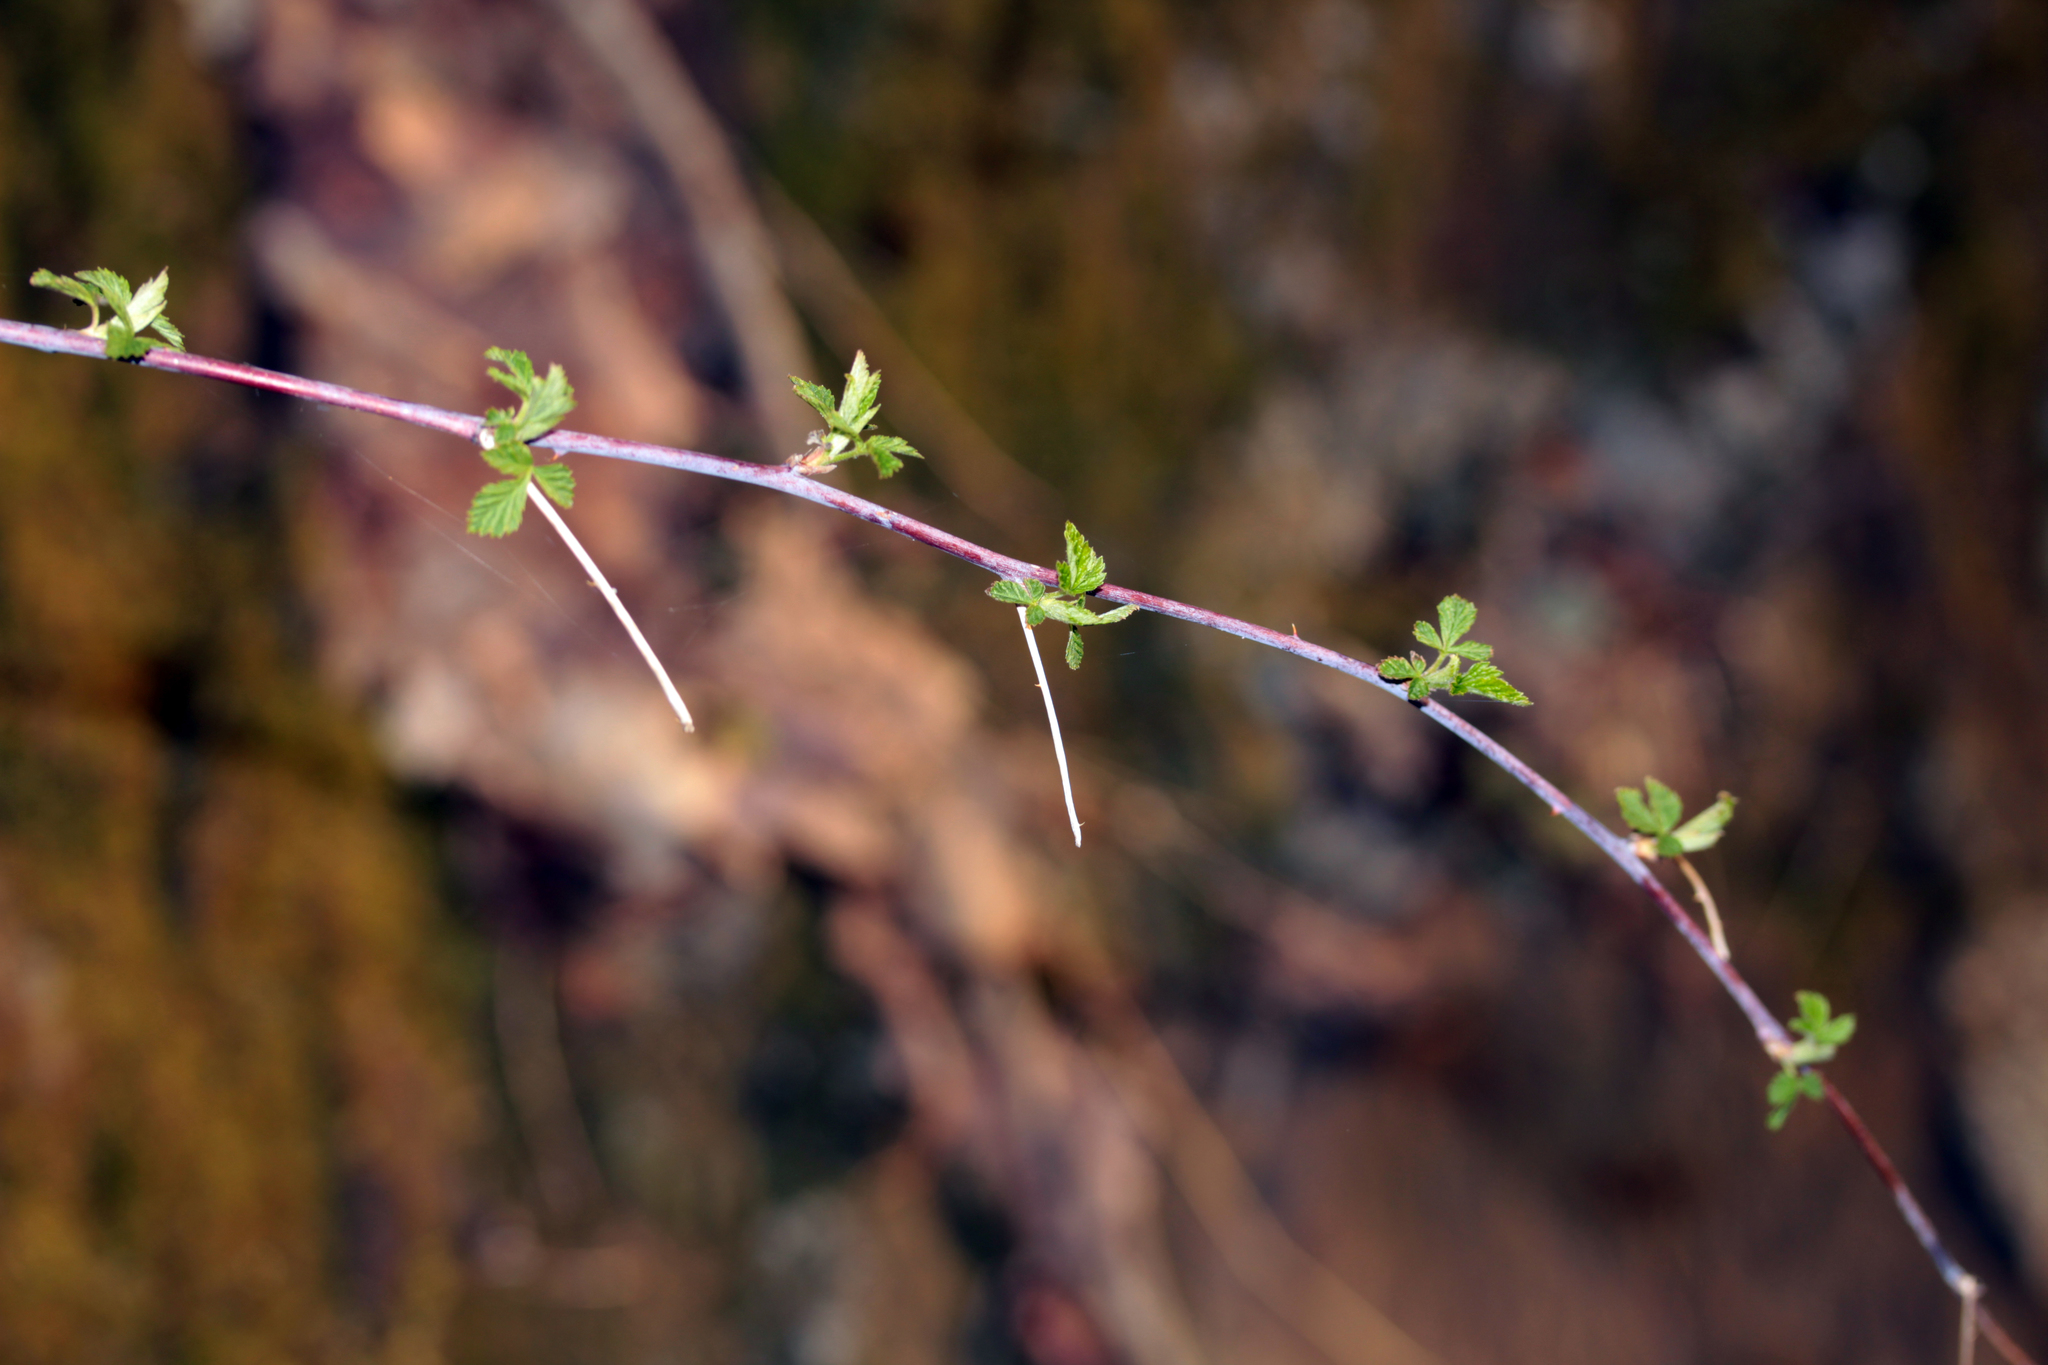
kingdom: Plantae
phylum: Tracheophyta
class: Magnoliopsida
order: Rosales
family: Rosaceae
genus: Rubus
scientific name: Rubus occidentalis
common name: Black raspberry
